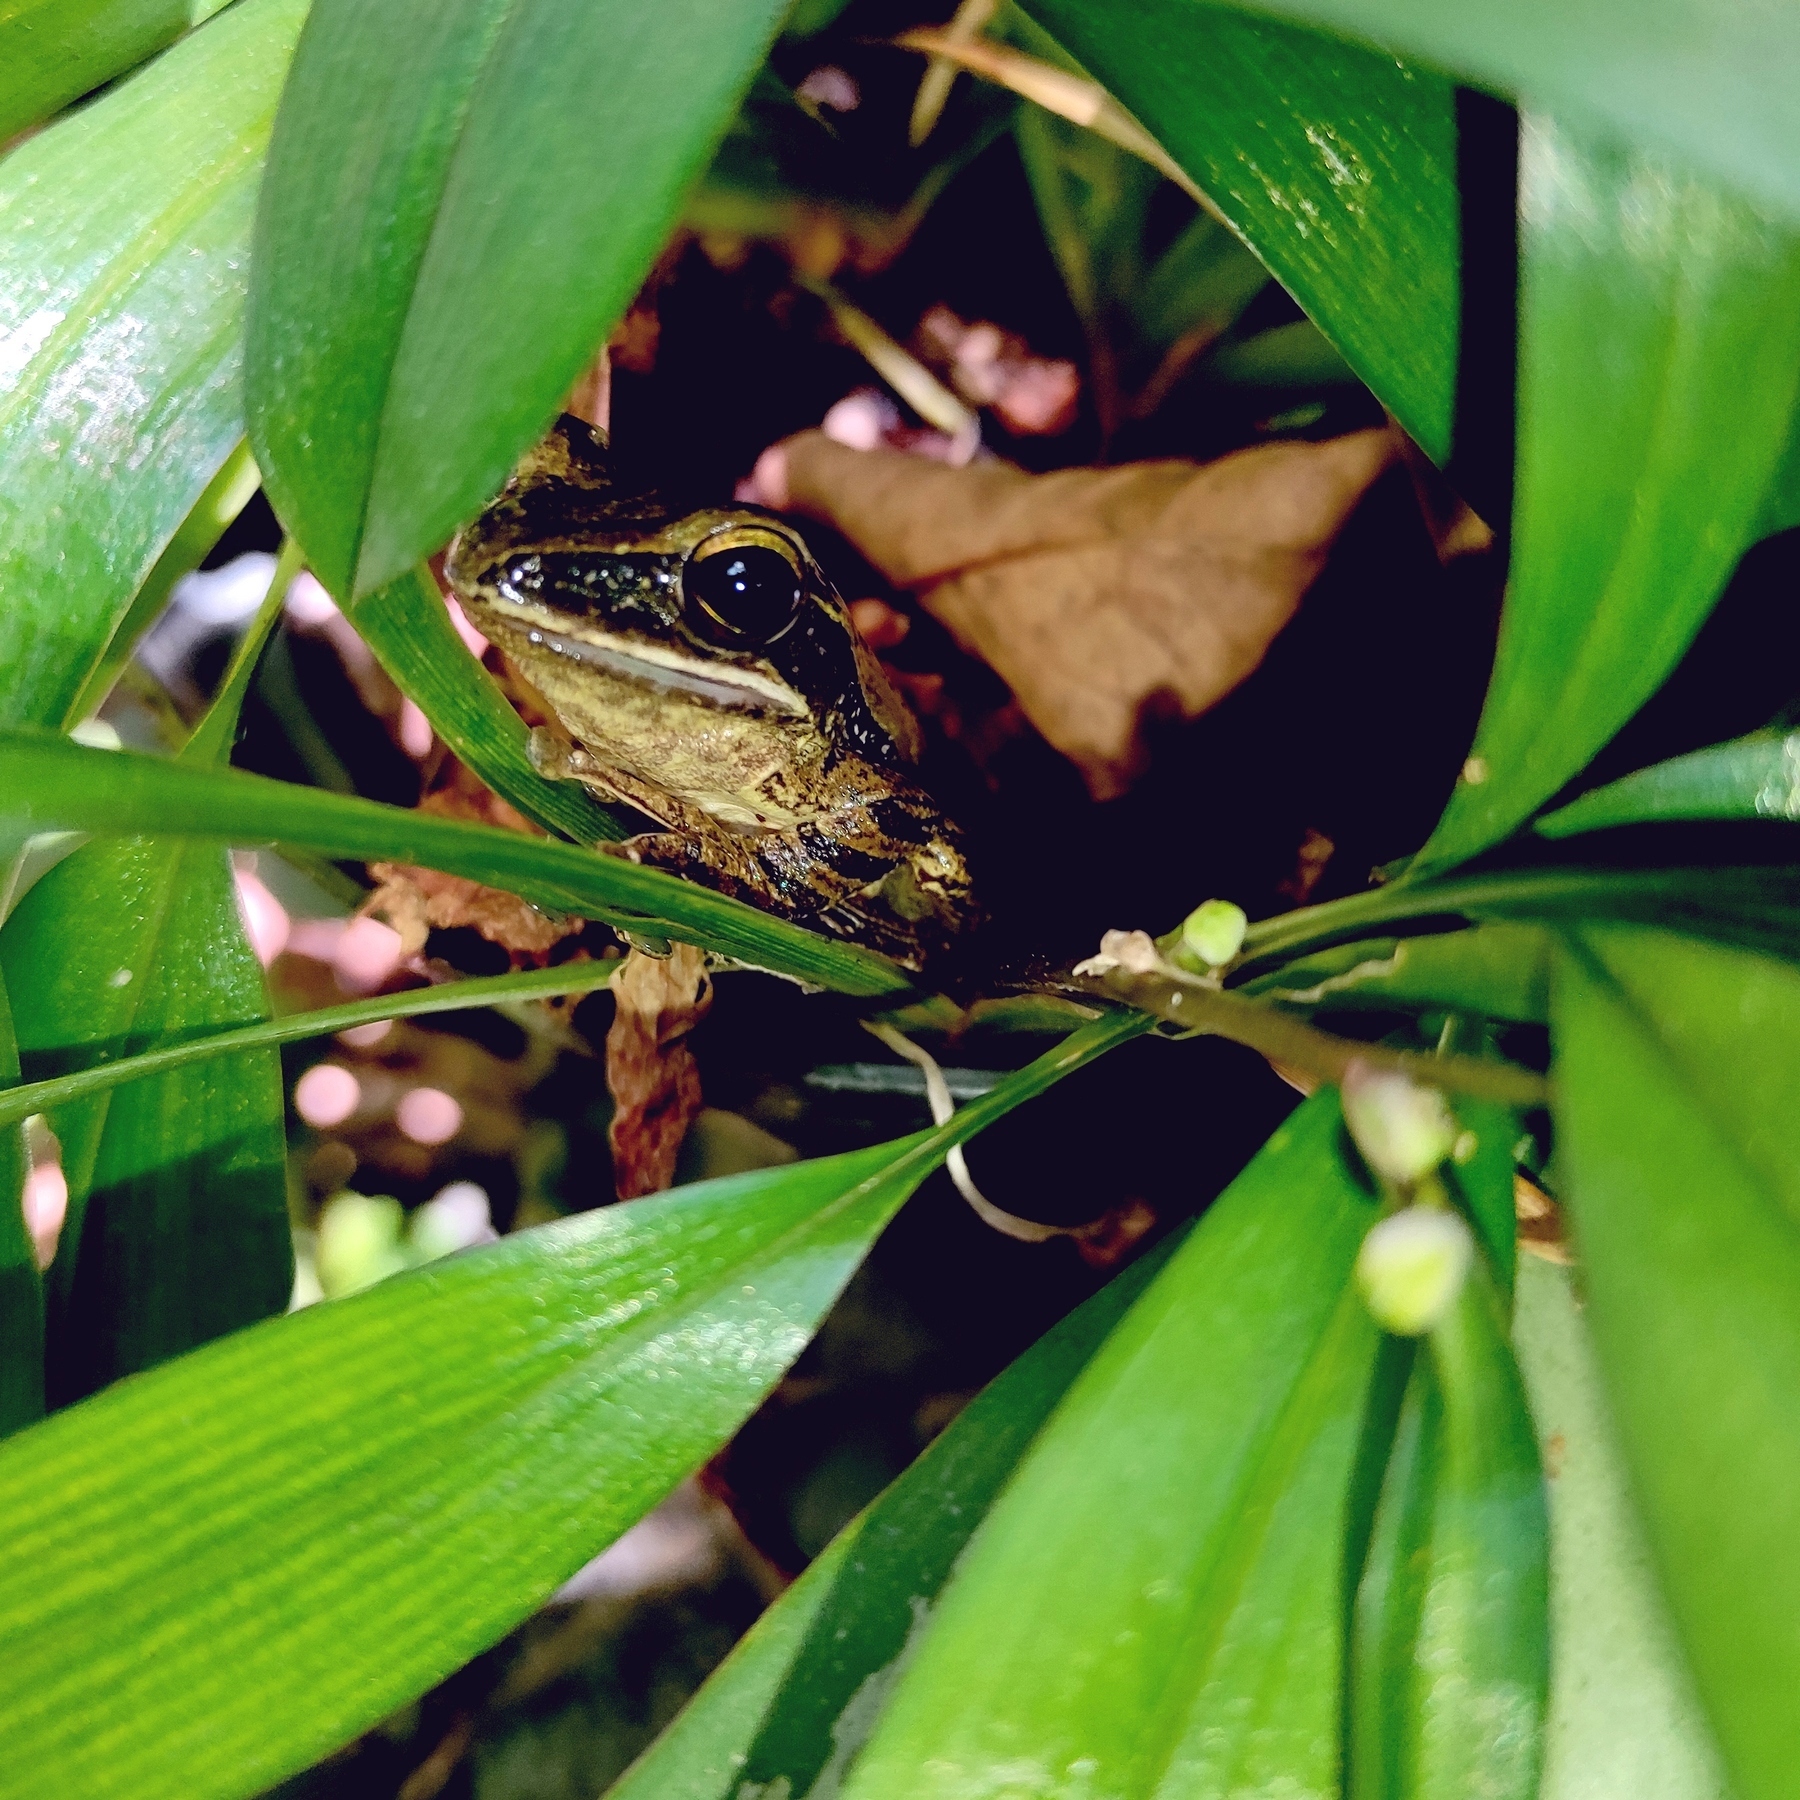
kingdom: Animalia
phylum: Chordata
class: Amphibia
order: Anura
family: Rhacophoridae
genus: Polypedates
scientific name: Polypedates leucomystax
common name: Common tree frog/four-lined tree frog
